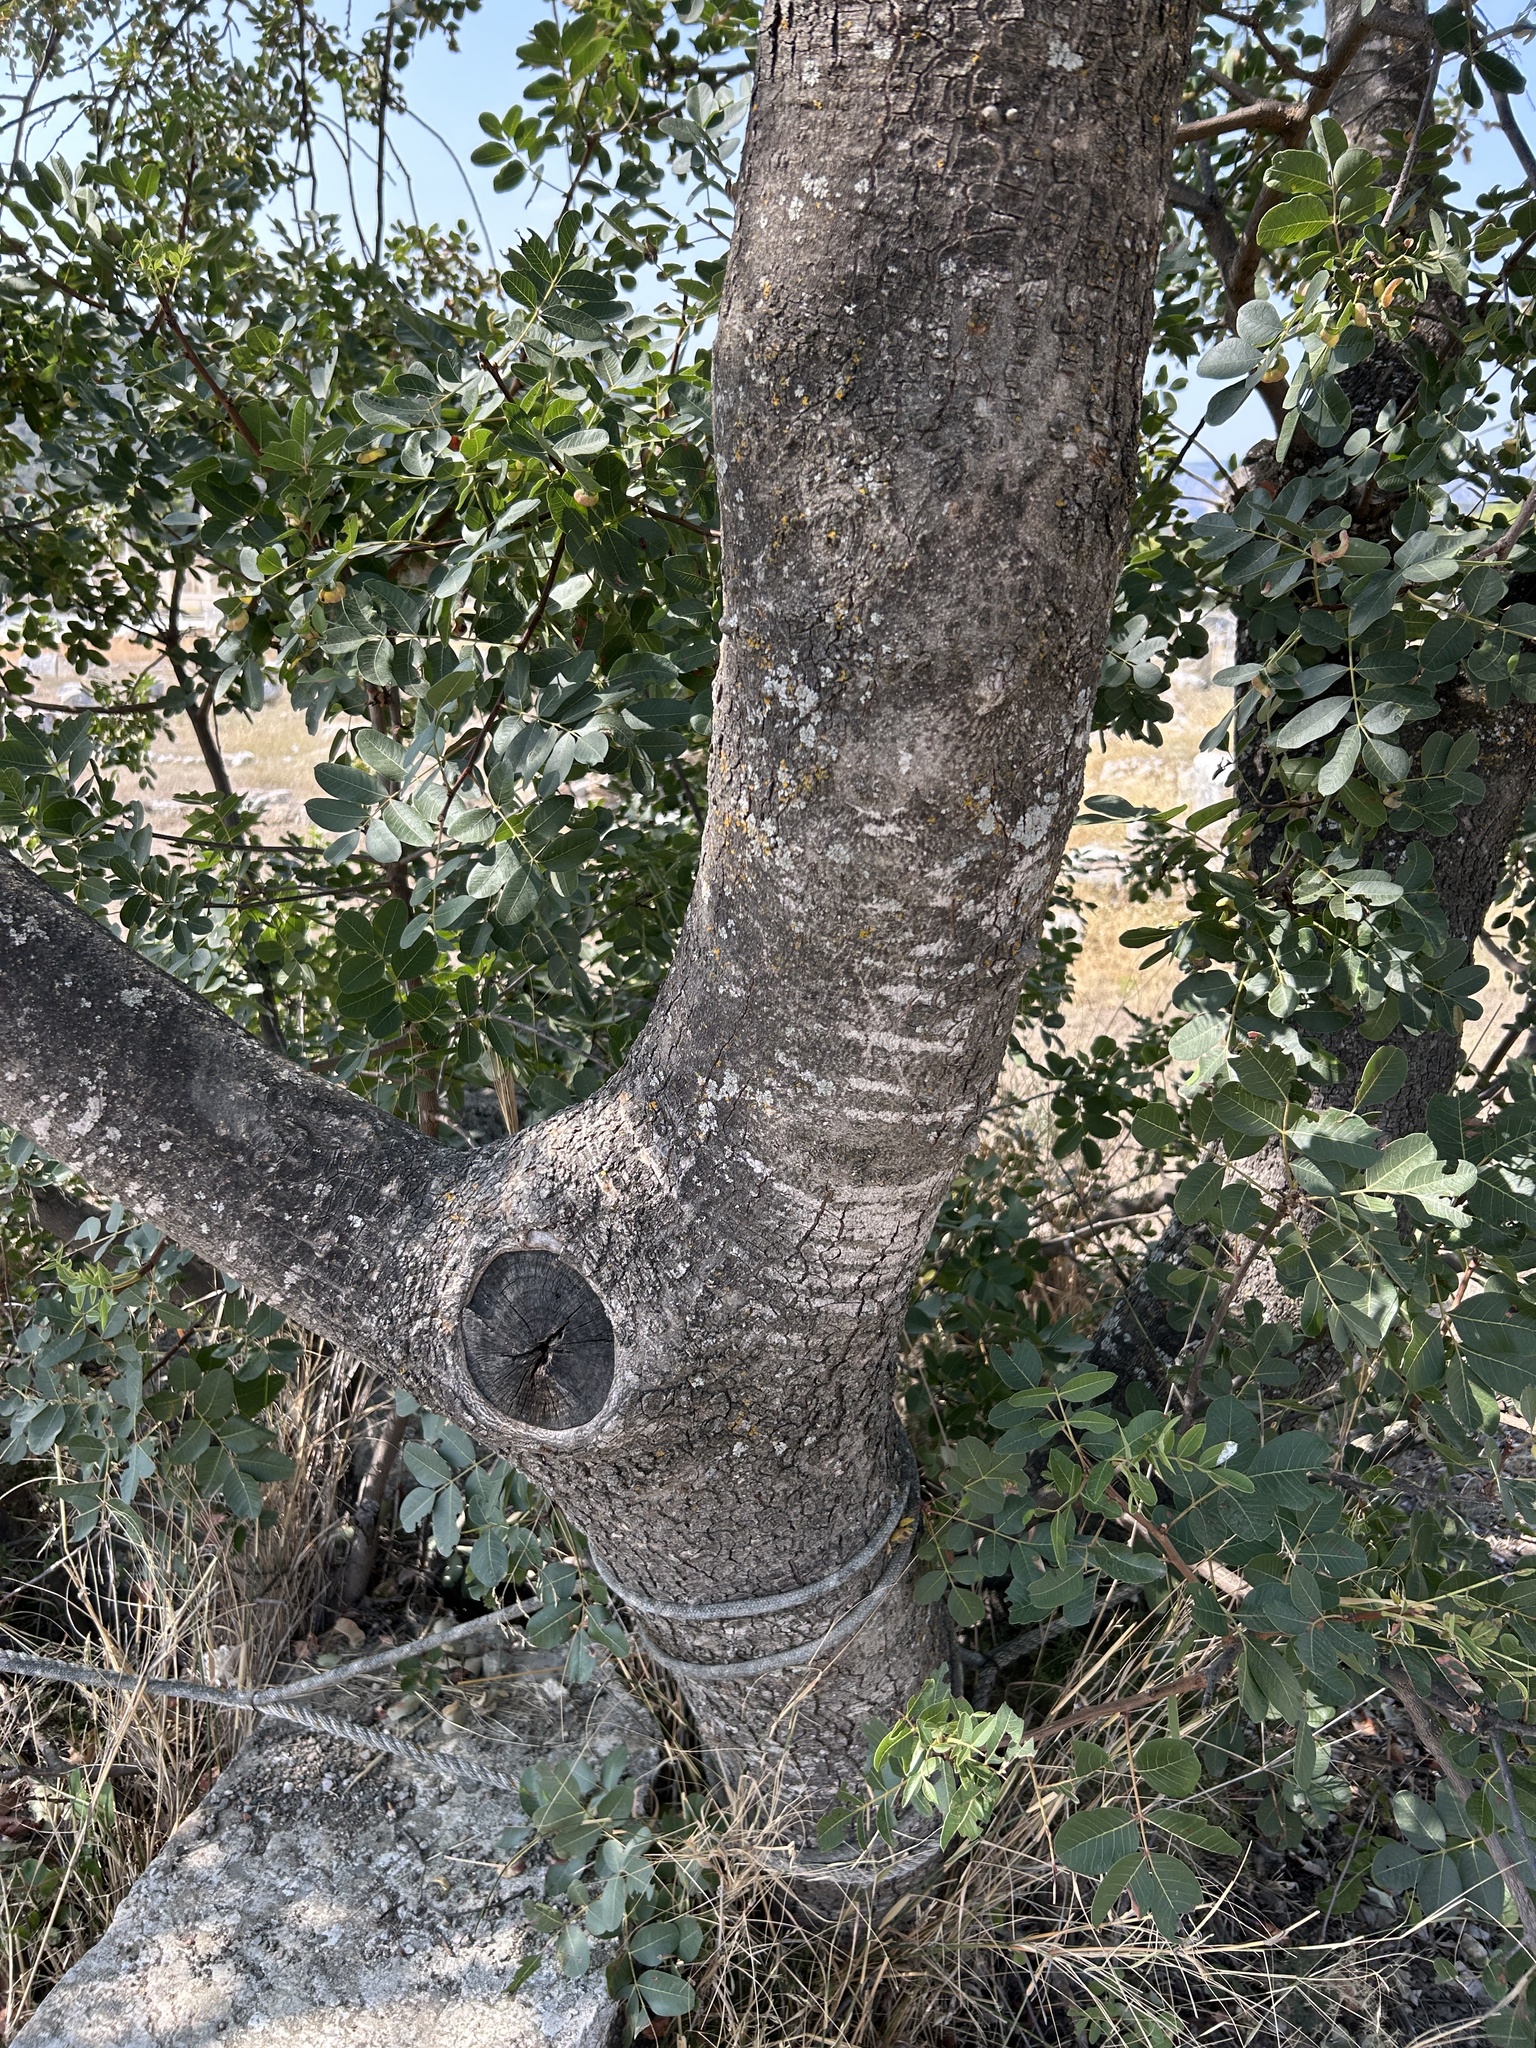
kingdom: Plantae
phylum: Tracheophyta
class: Magnoliopsida
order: Sapindales
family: Anacardiaceae
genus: Pistacia
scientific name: Pistacia terebinthus
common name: Terebinth
